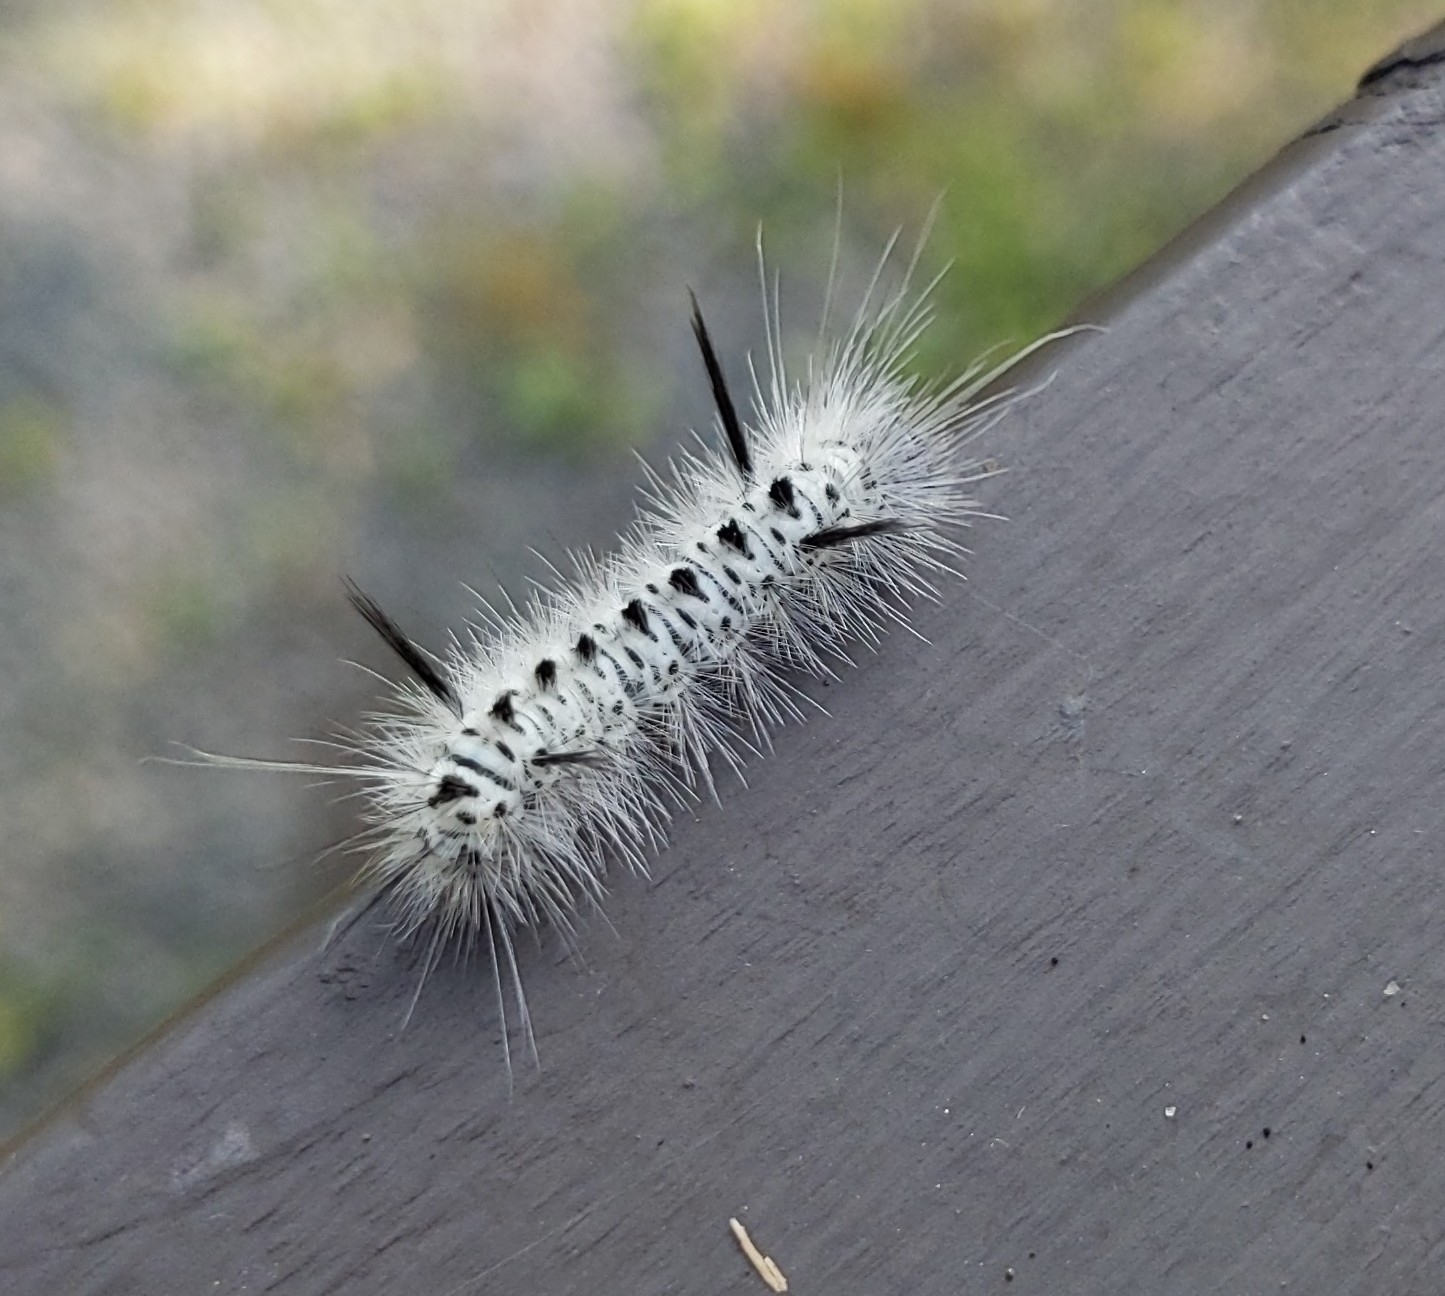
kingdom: Animalia
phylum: Arthropoda
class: Insecta
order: Lepidoptera
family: Erebidae
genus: Lophocampa
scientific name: Lophocampa caryae
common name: Hickory tussock moth
